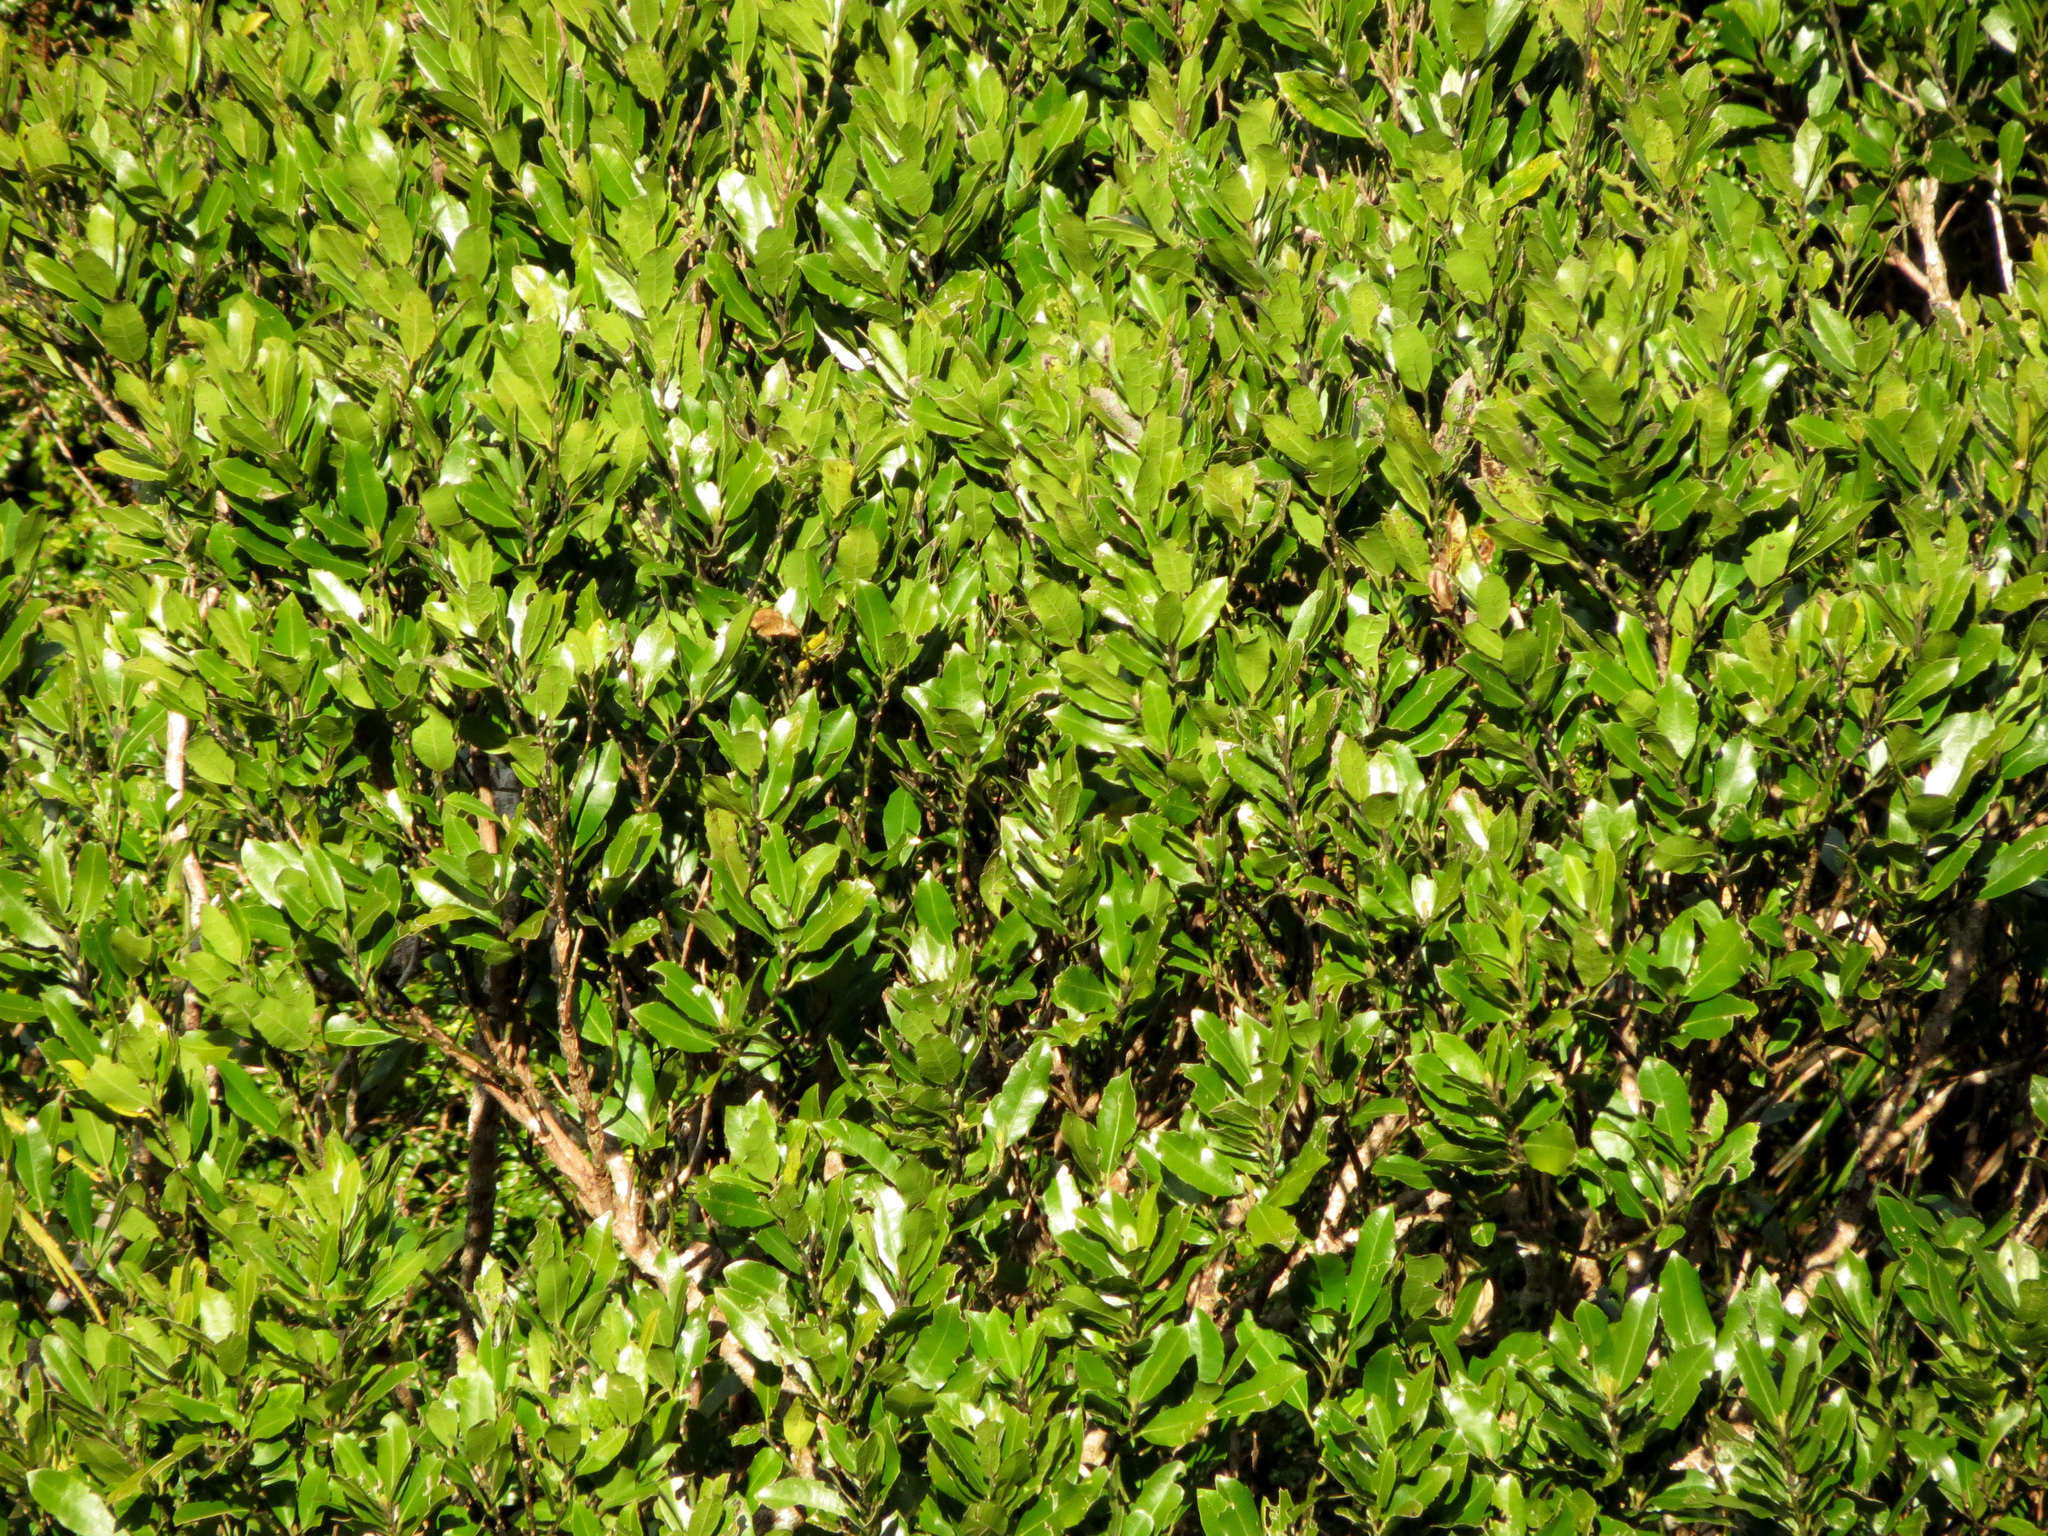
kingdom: Plantae
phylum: Tracheophyta
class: Magnoliopsida
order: Laurales
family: Monimiaceae
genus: Hedycarya
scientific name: Hedycarya arborea
